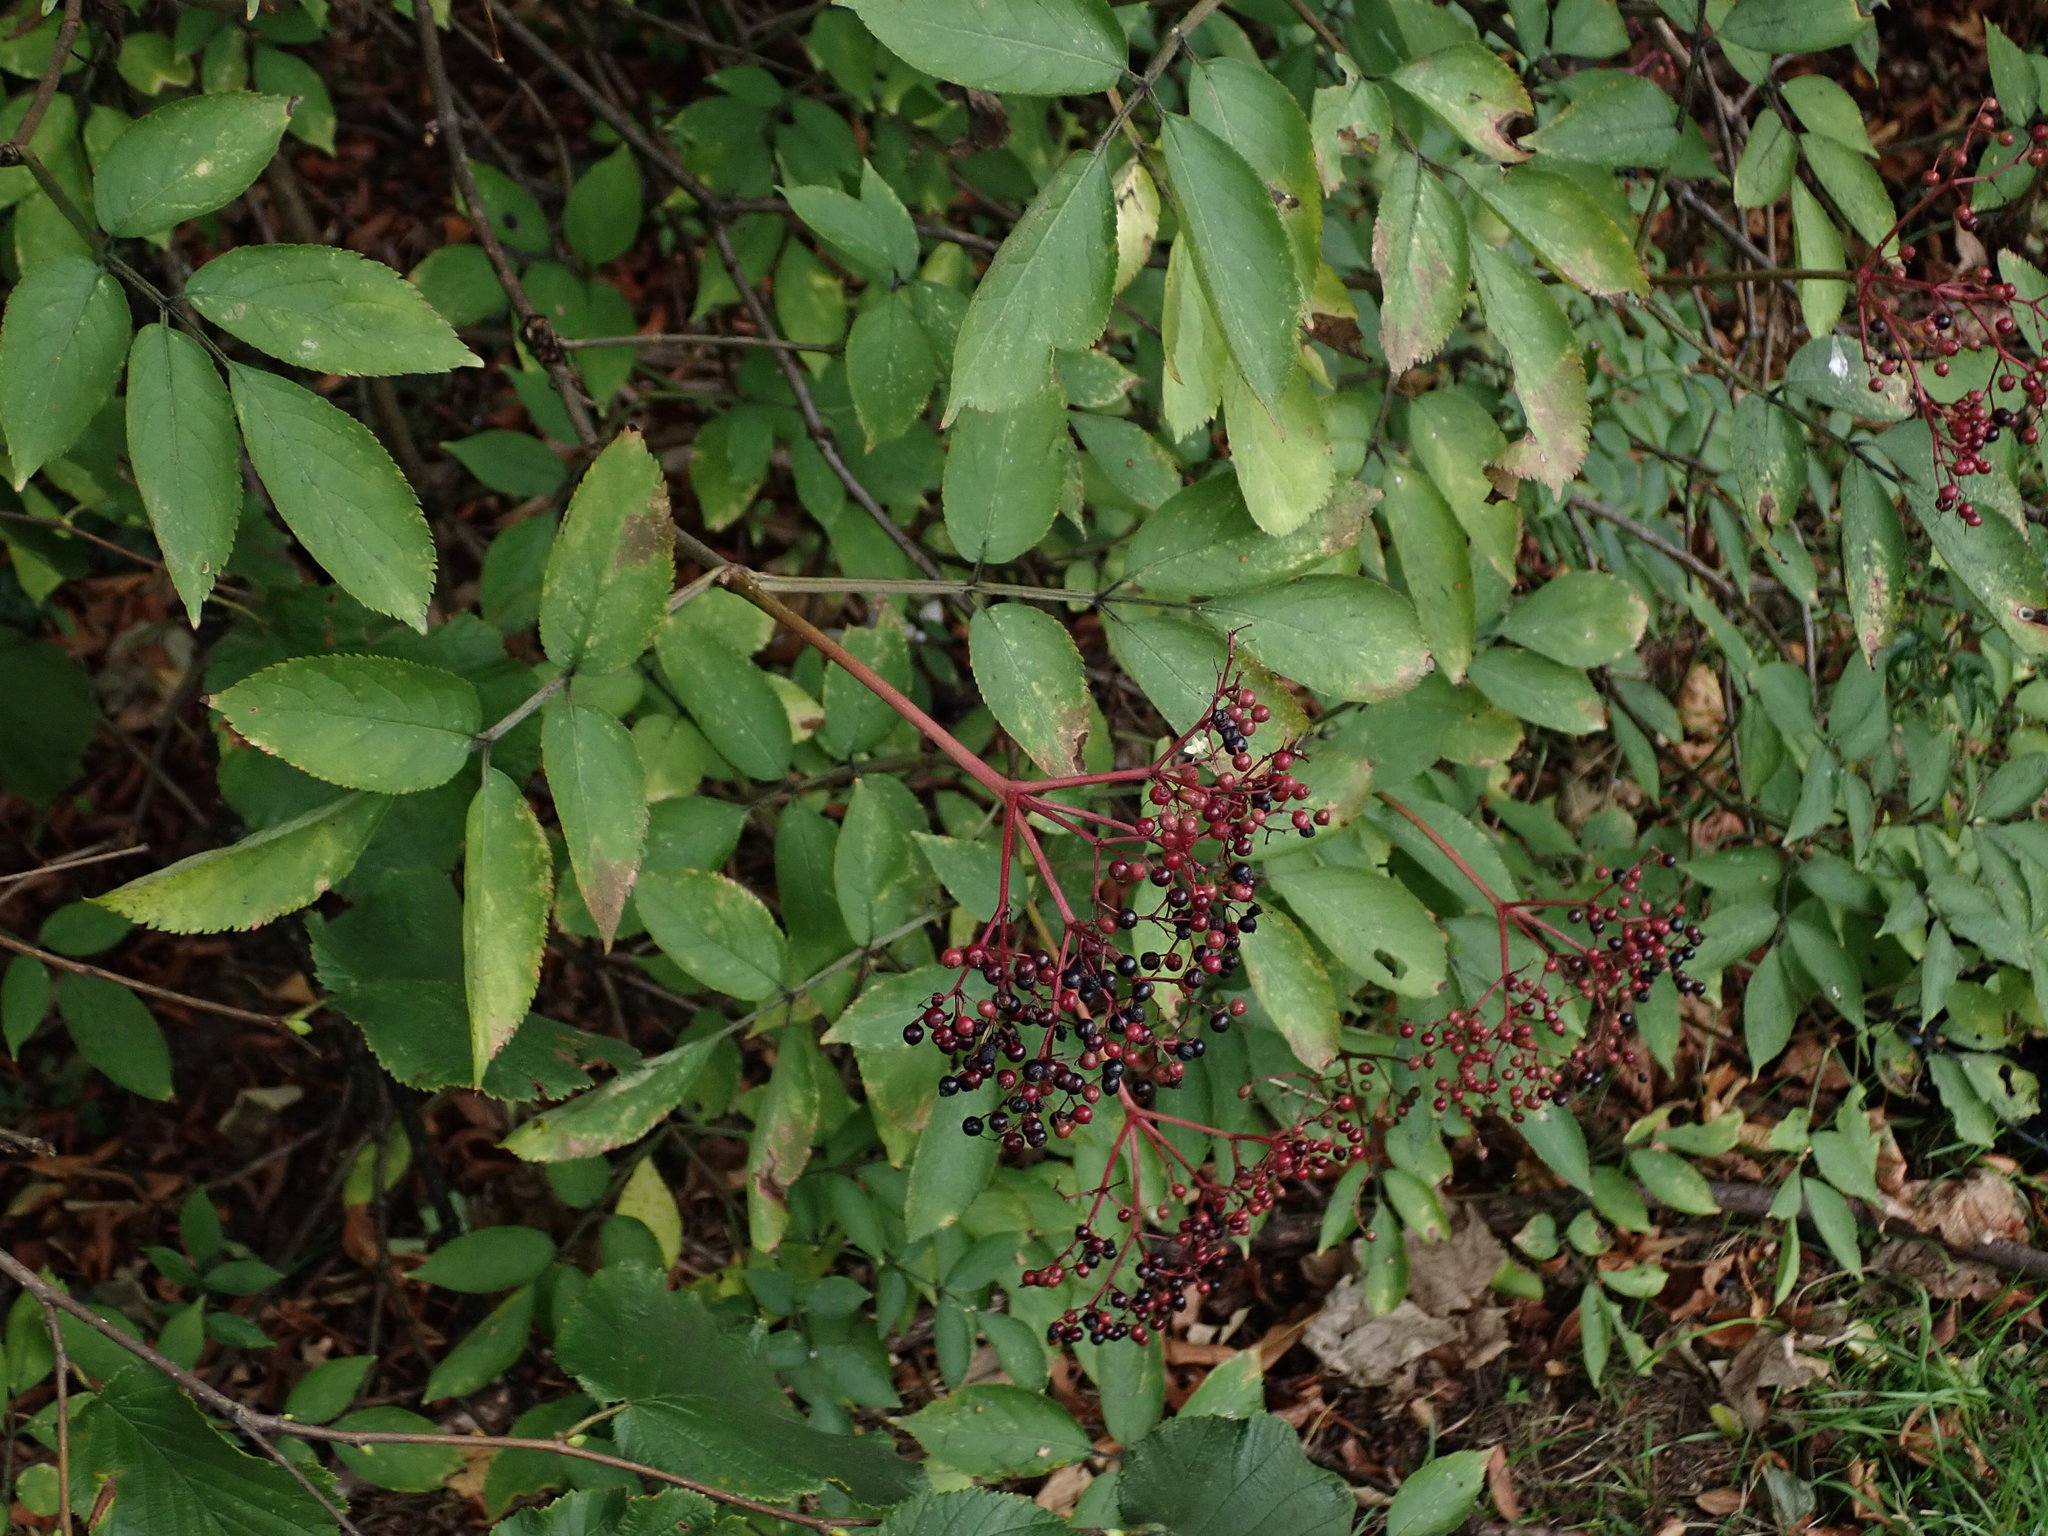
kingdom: Plantae
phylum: Tracheophyta
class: Magnoliopsida
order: Dipsacales
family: Viburnaceae
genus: Sambucus
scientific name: Sambucus nigra
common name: Elder
